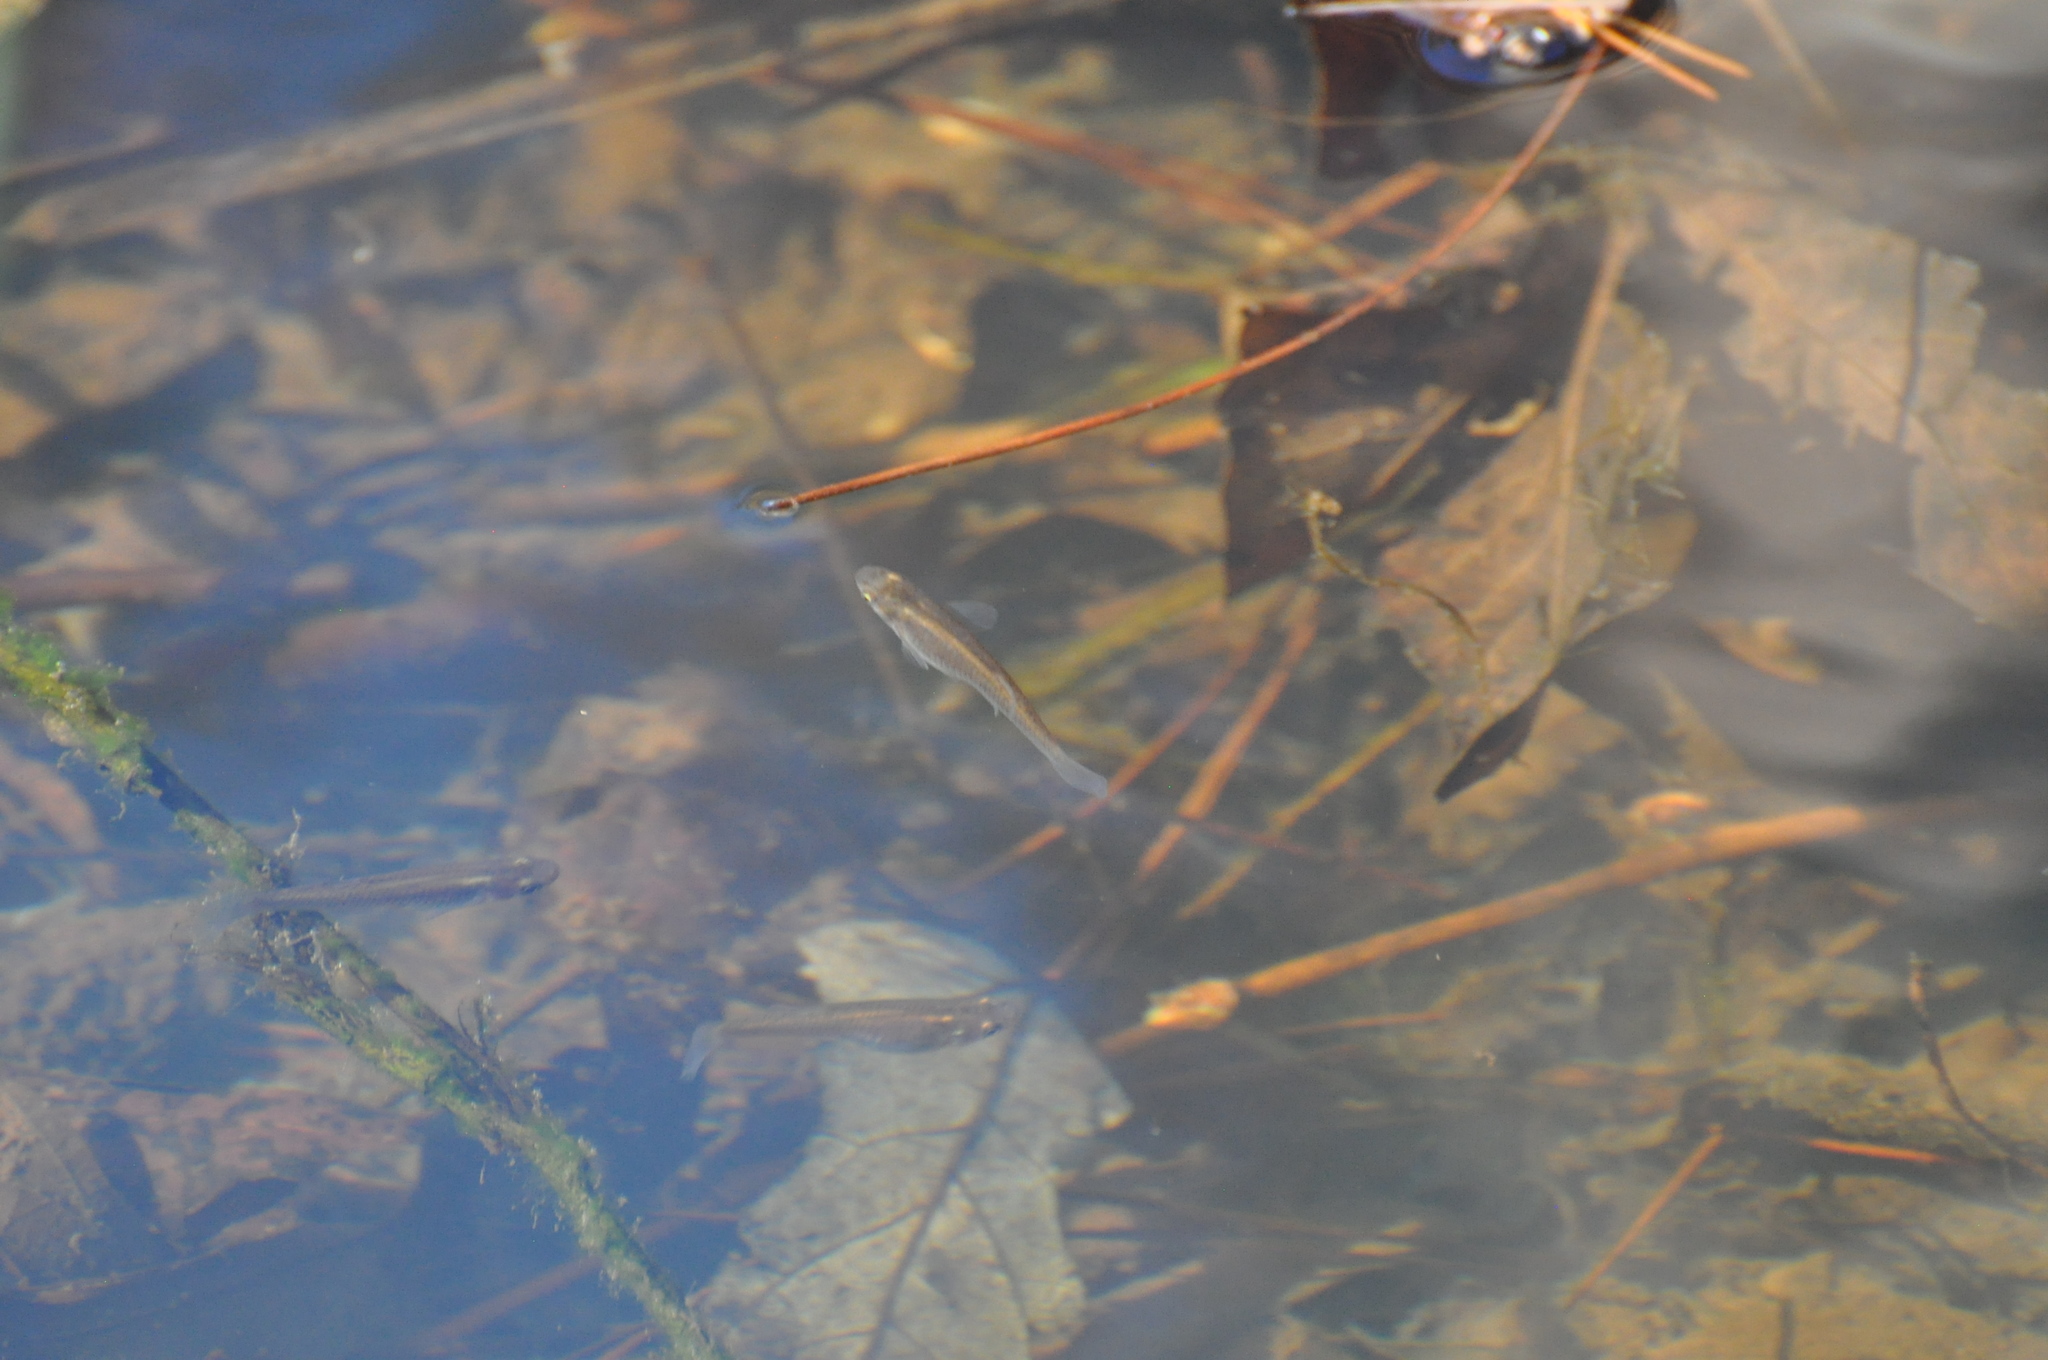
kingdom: Animalia
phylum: Chordata
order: Cyprinodontiformes
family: Poeciliidae
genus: Gambusia
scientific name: Gambusia affinis
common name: Mosquitofish
